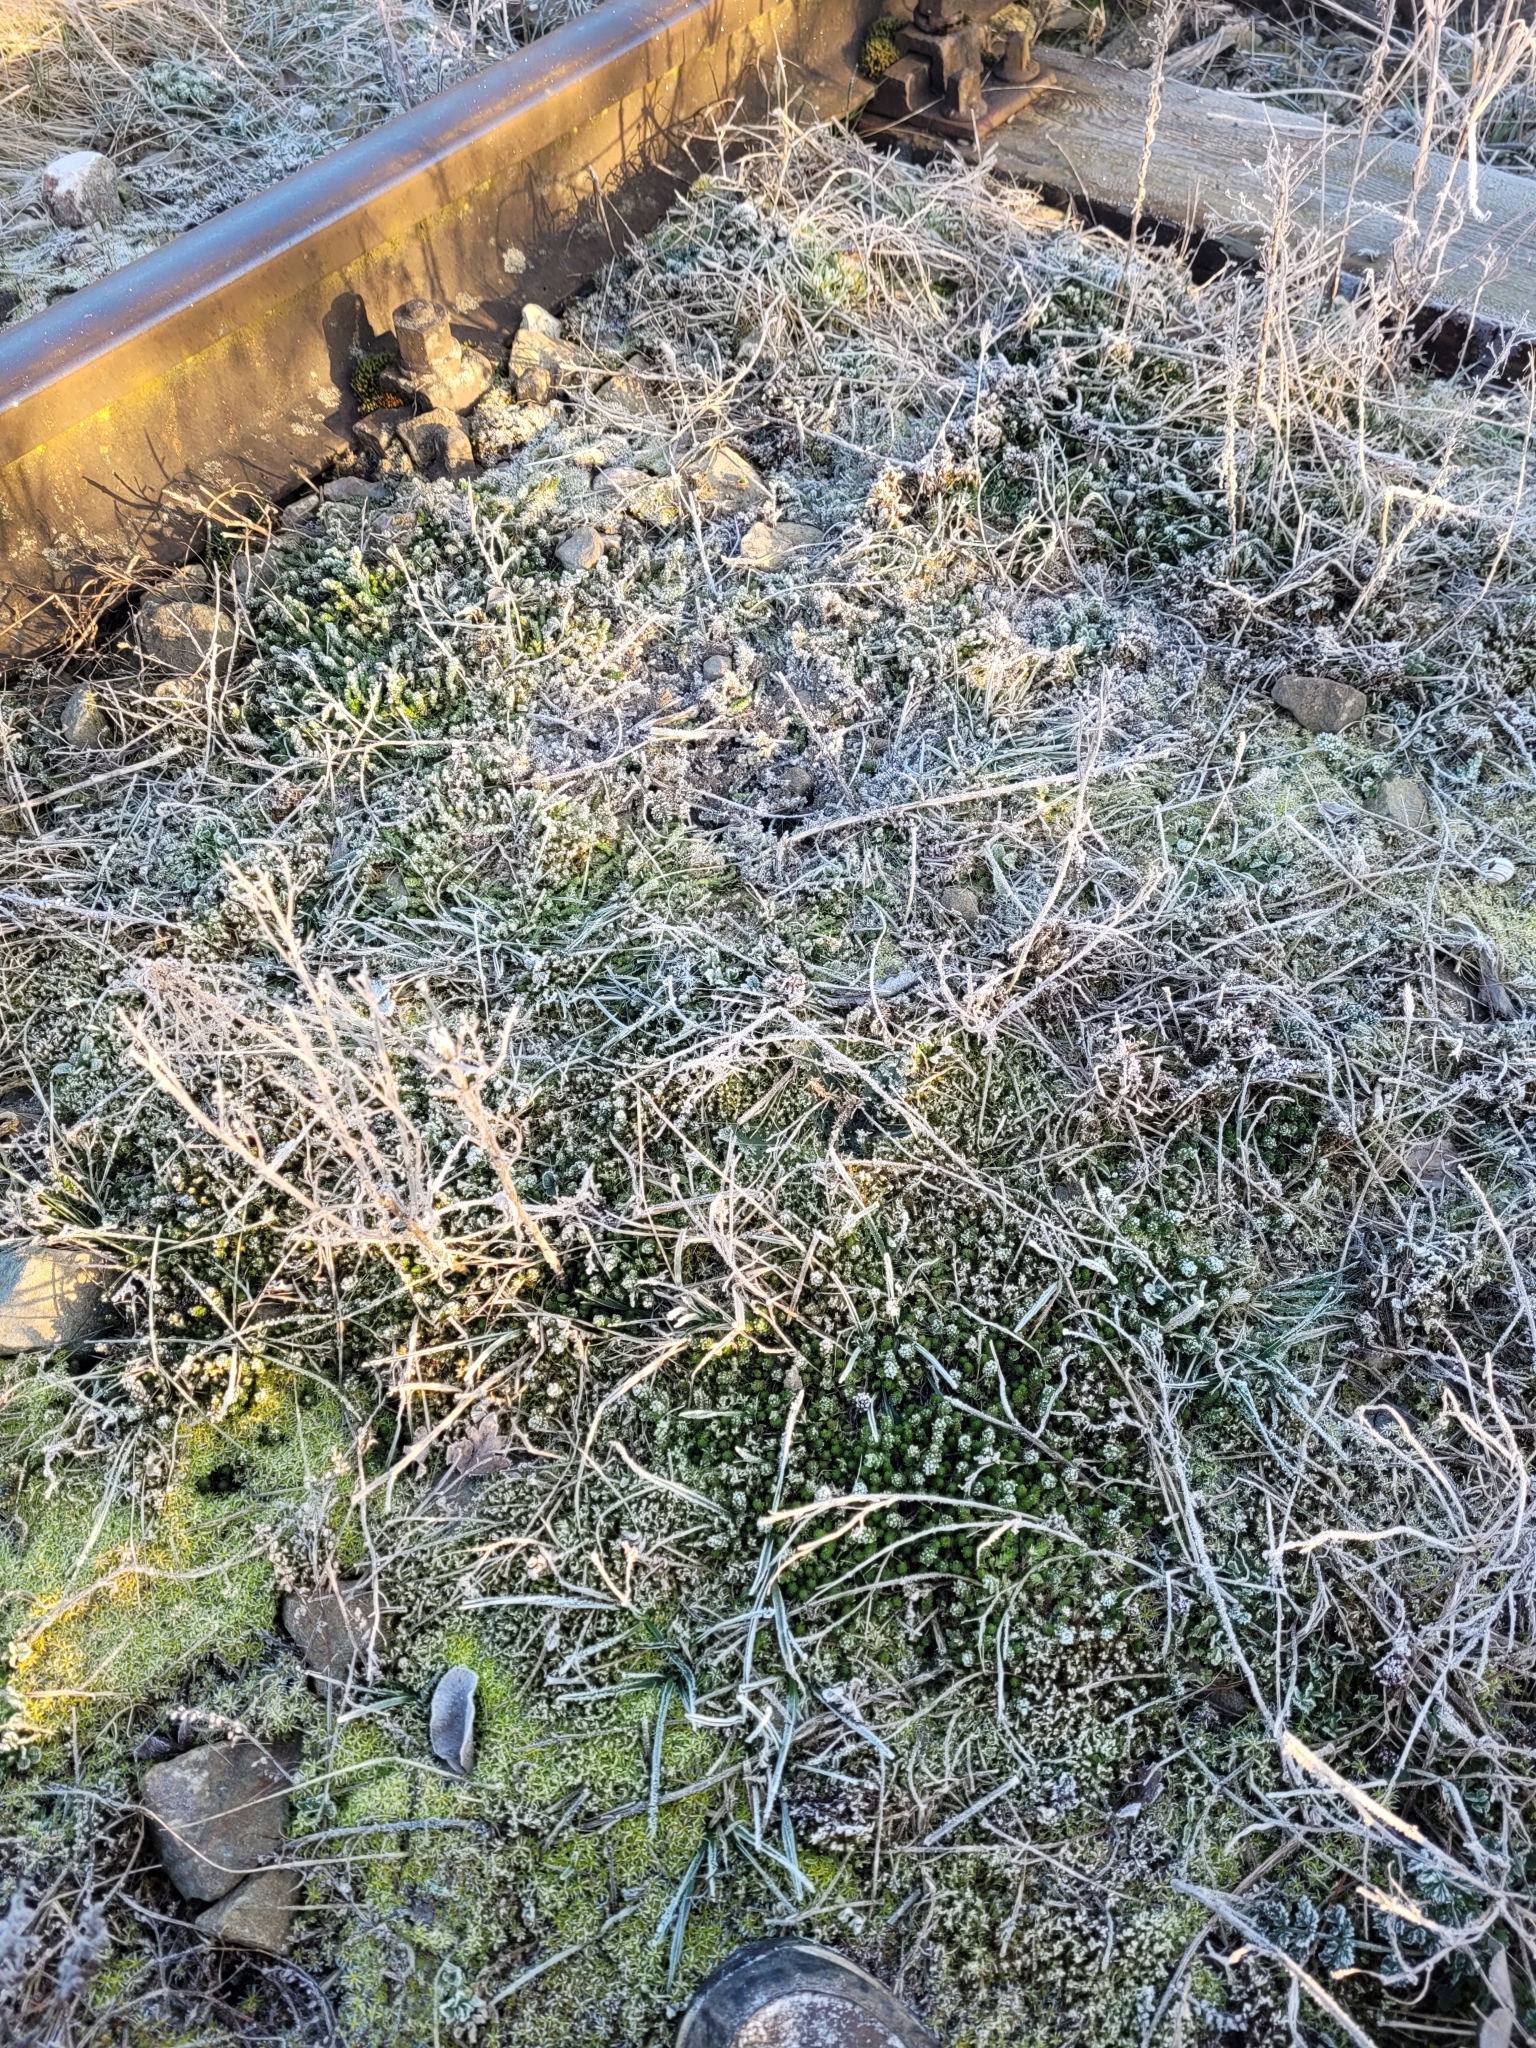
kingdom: Plantae
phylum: Tracheophyta
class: Magnoliopsida
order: Saxifragales
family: Crassulaceae
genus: Sedum
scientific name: Sedum acre
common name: Biting stonecrop
